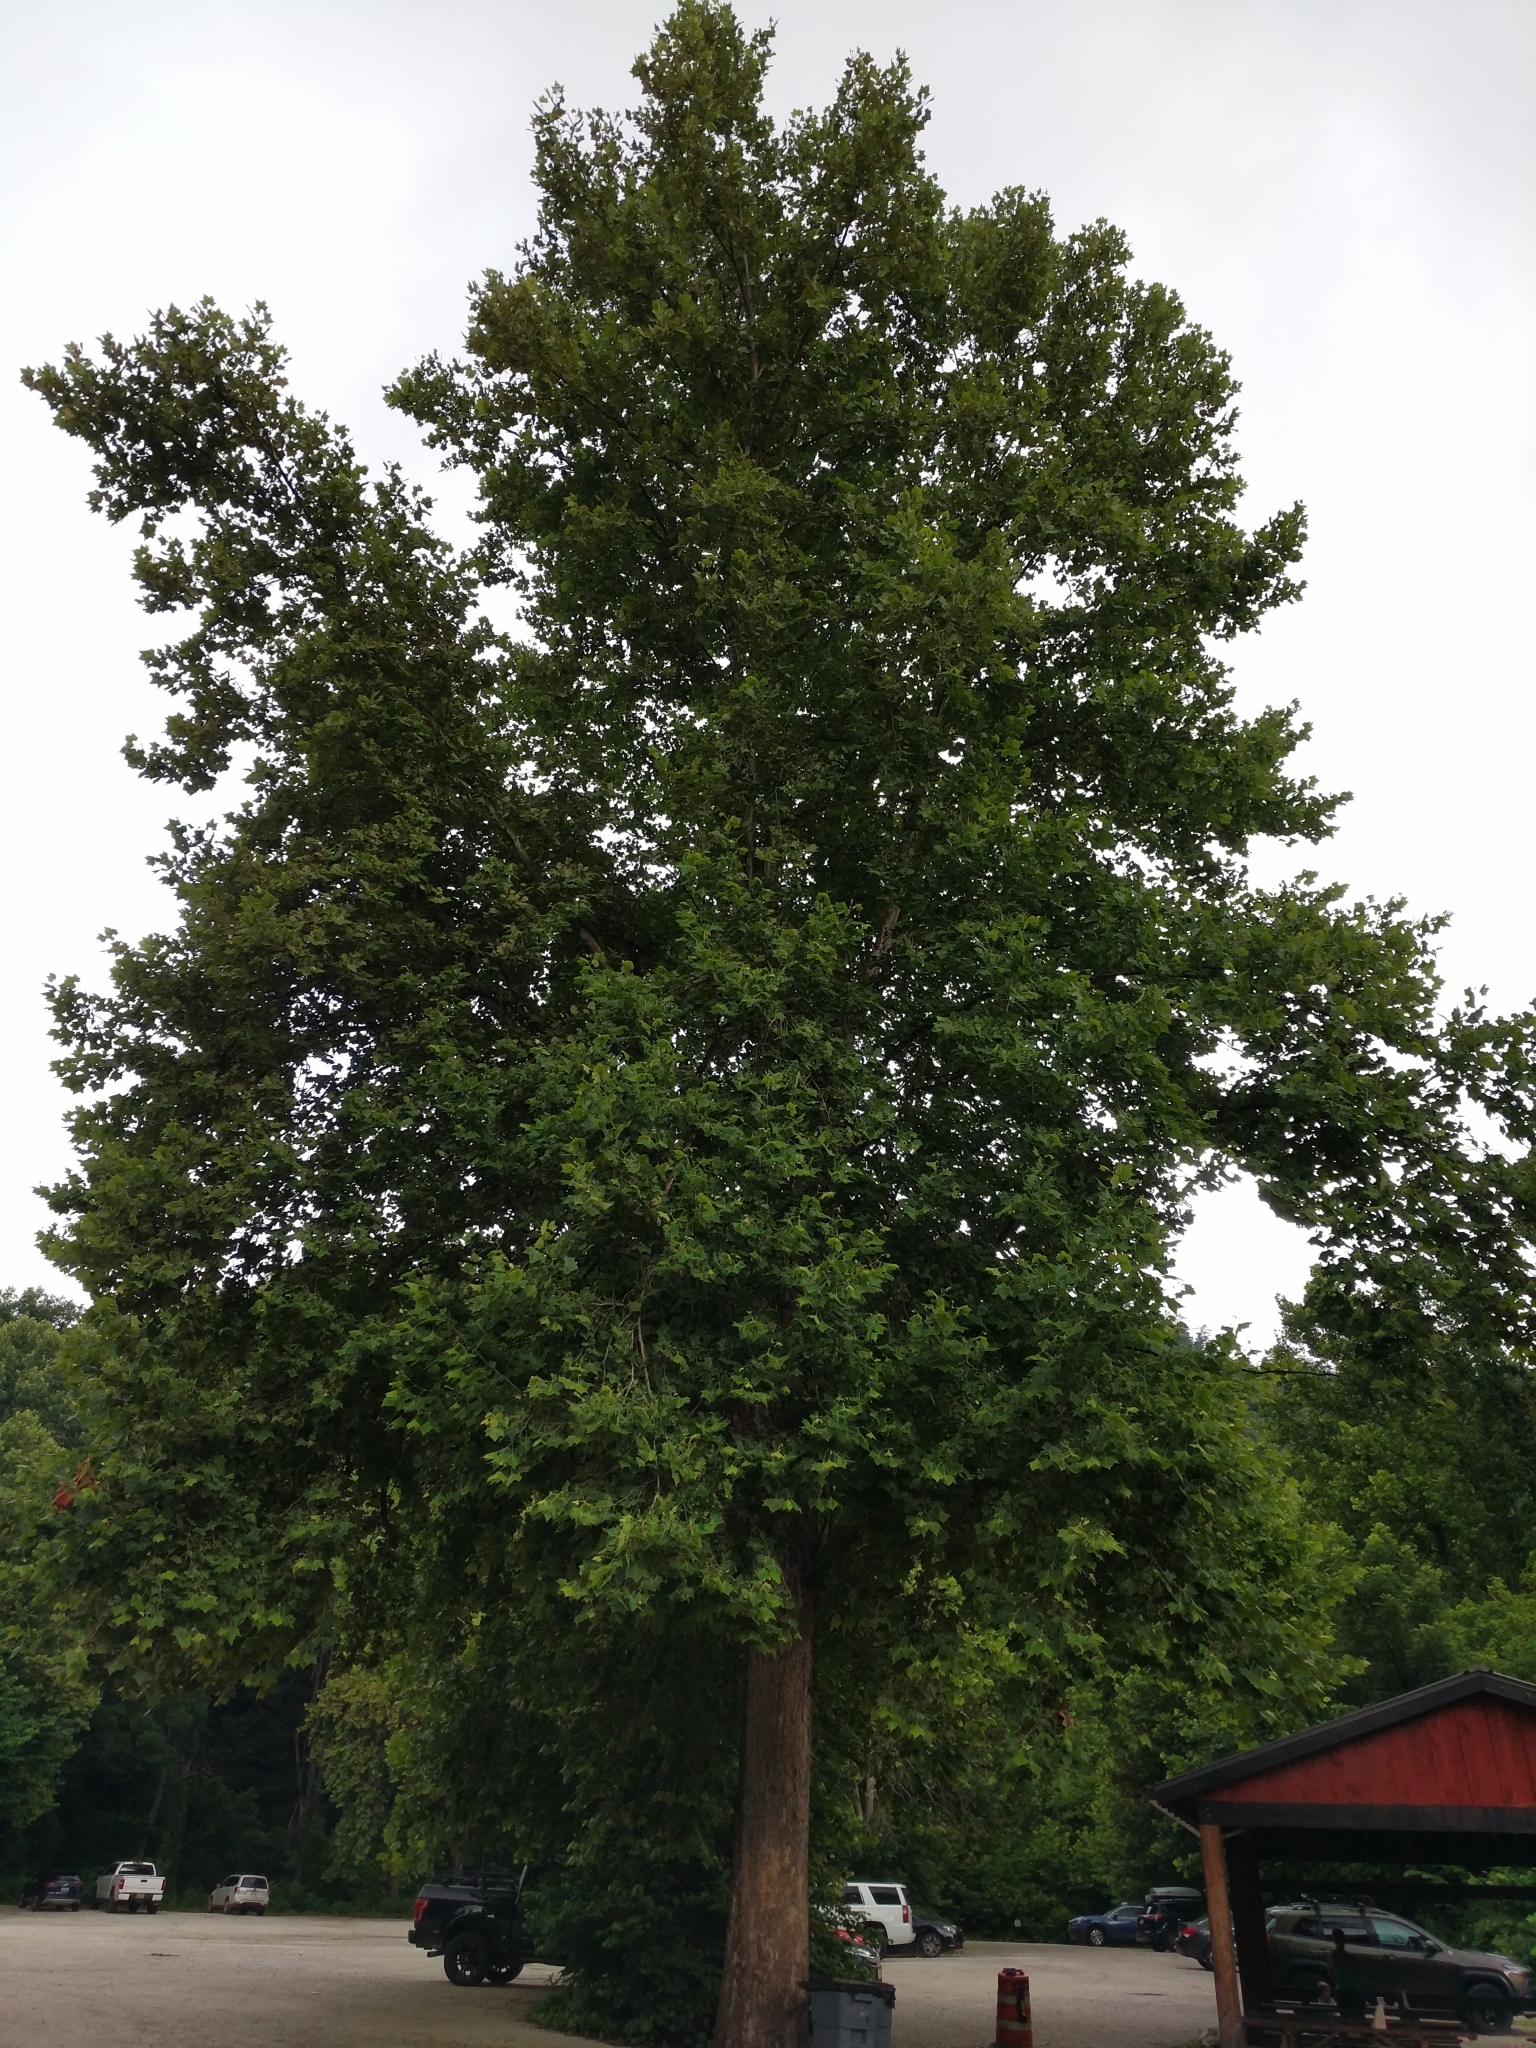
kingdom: Plantae
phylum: Tracheophyta
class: Magnoliopsida
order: Proteales
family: Platanaceae
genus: Platanus
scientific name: Platanus occidentalis
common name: American sycamore
